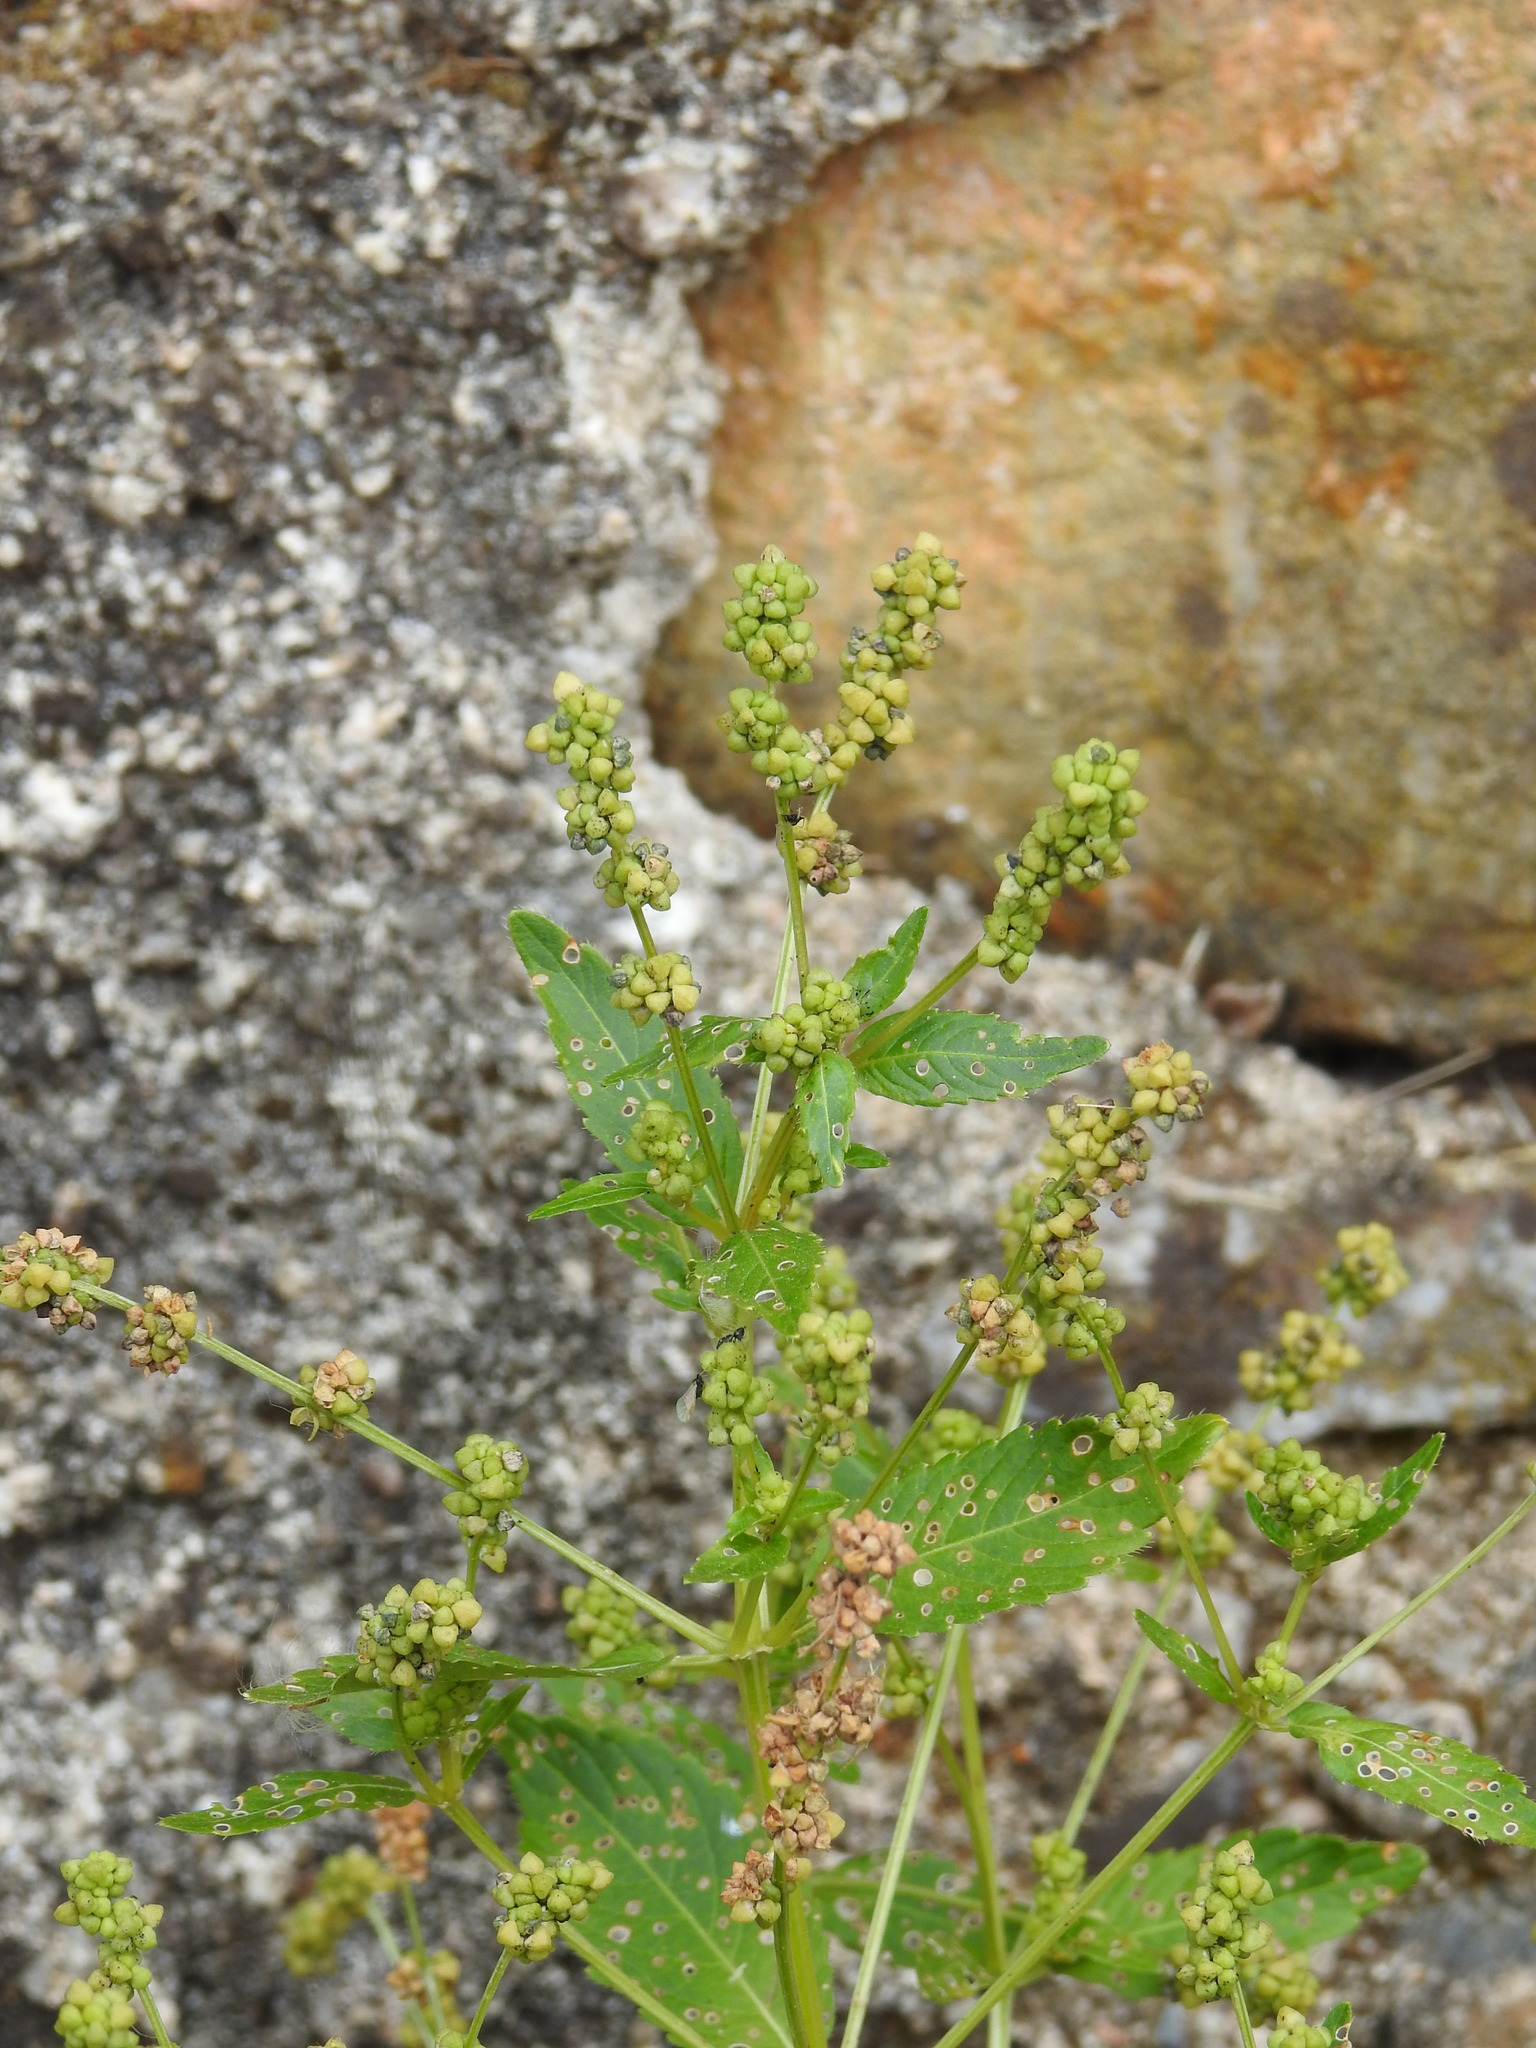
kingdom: Plantae
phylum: Tracheophyta
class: Magnoliopsida
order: Malpighiales
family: Euphorbiaceae
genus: Mercurialis
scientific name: Mercurialis annua
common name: Annual mercury
